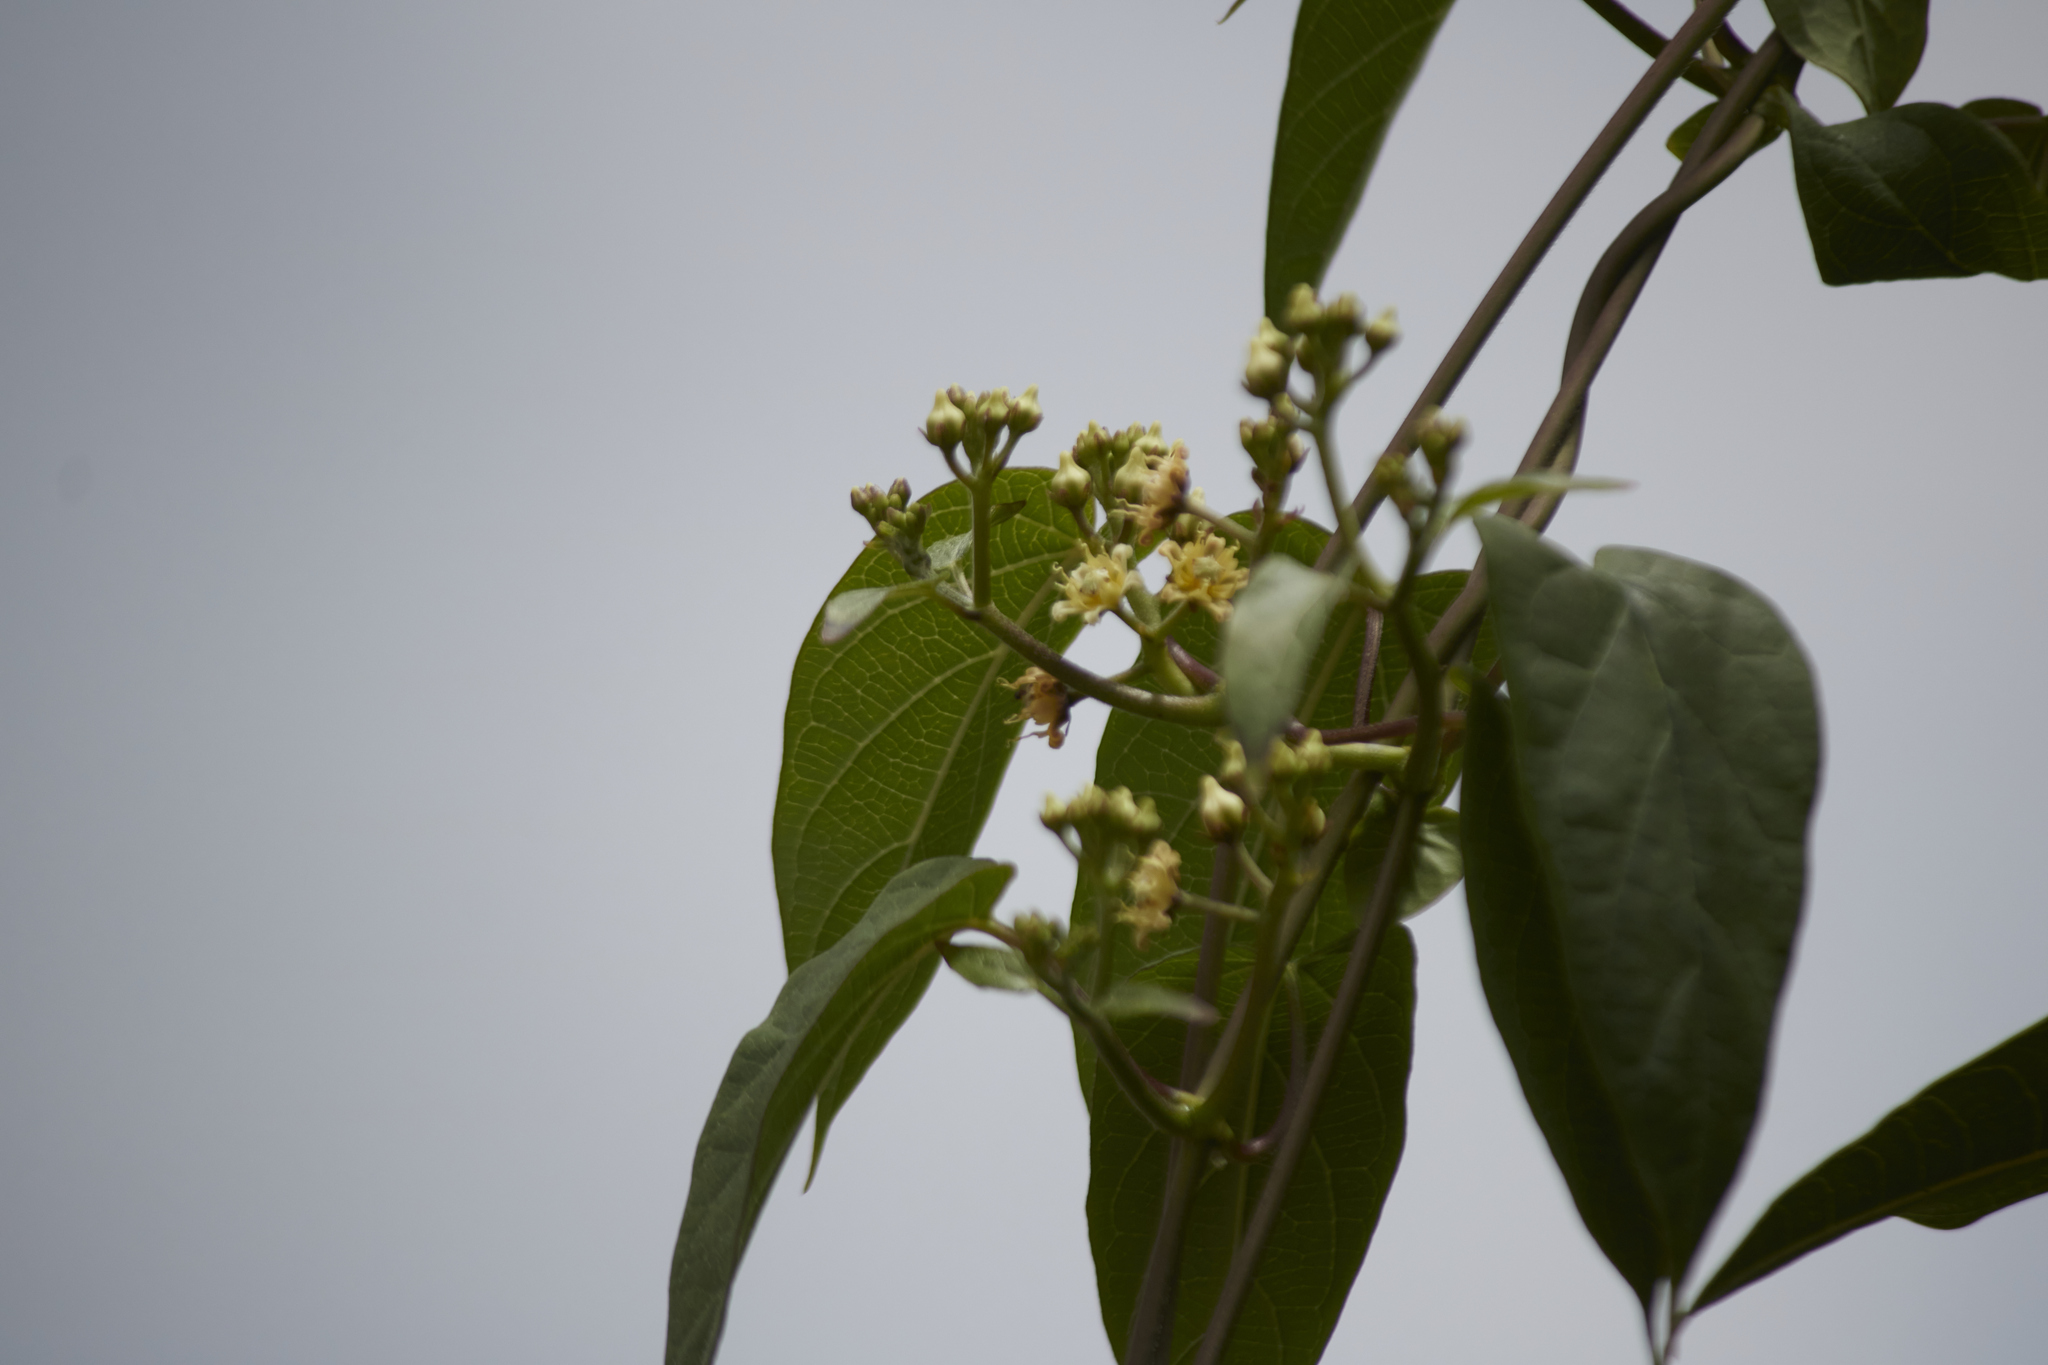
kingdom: Plantae
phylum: Tracheophyta
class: Magnoliopsida
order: Gentianales
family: Apocynaceae
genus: Cynanchum
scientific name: Cynanchum foetidum
